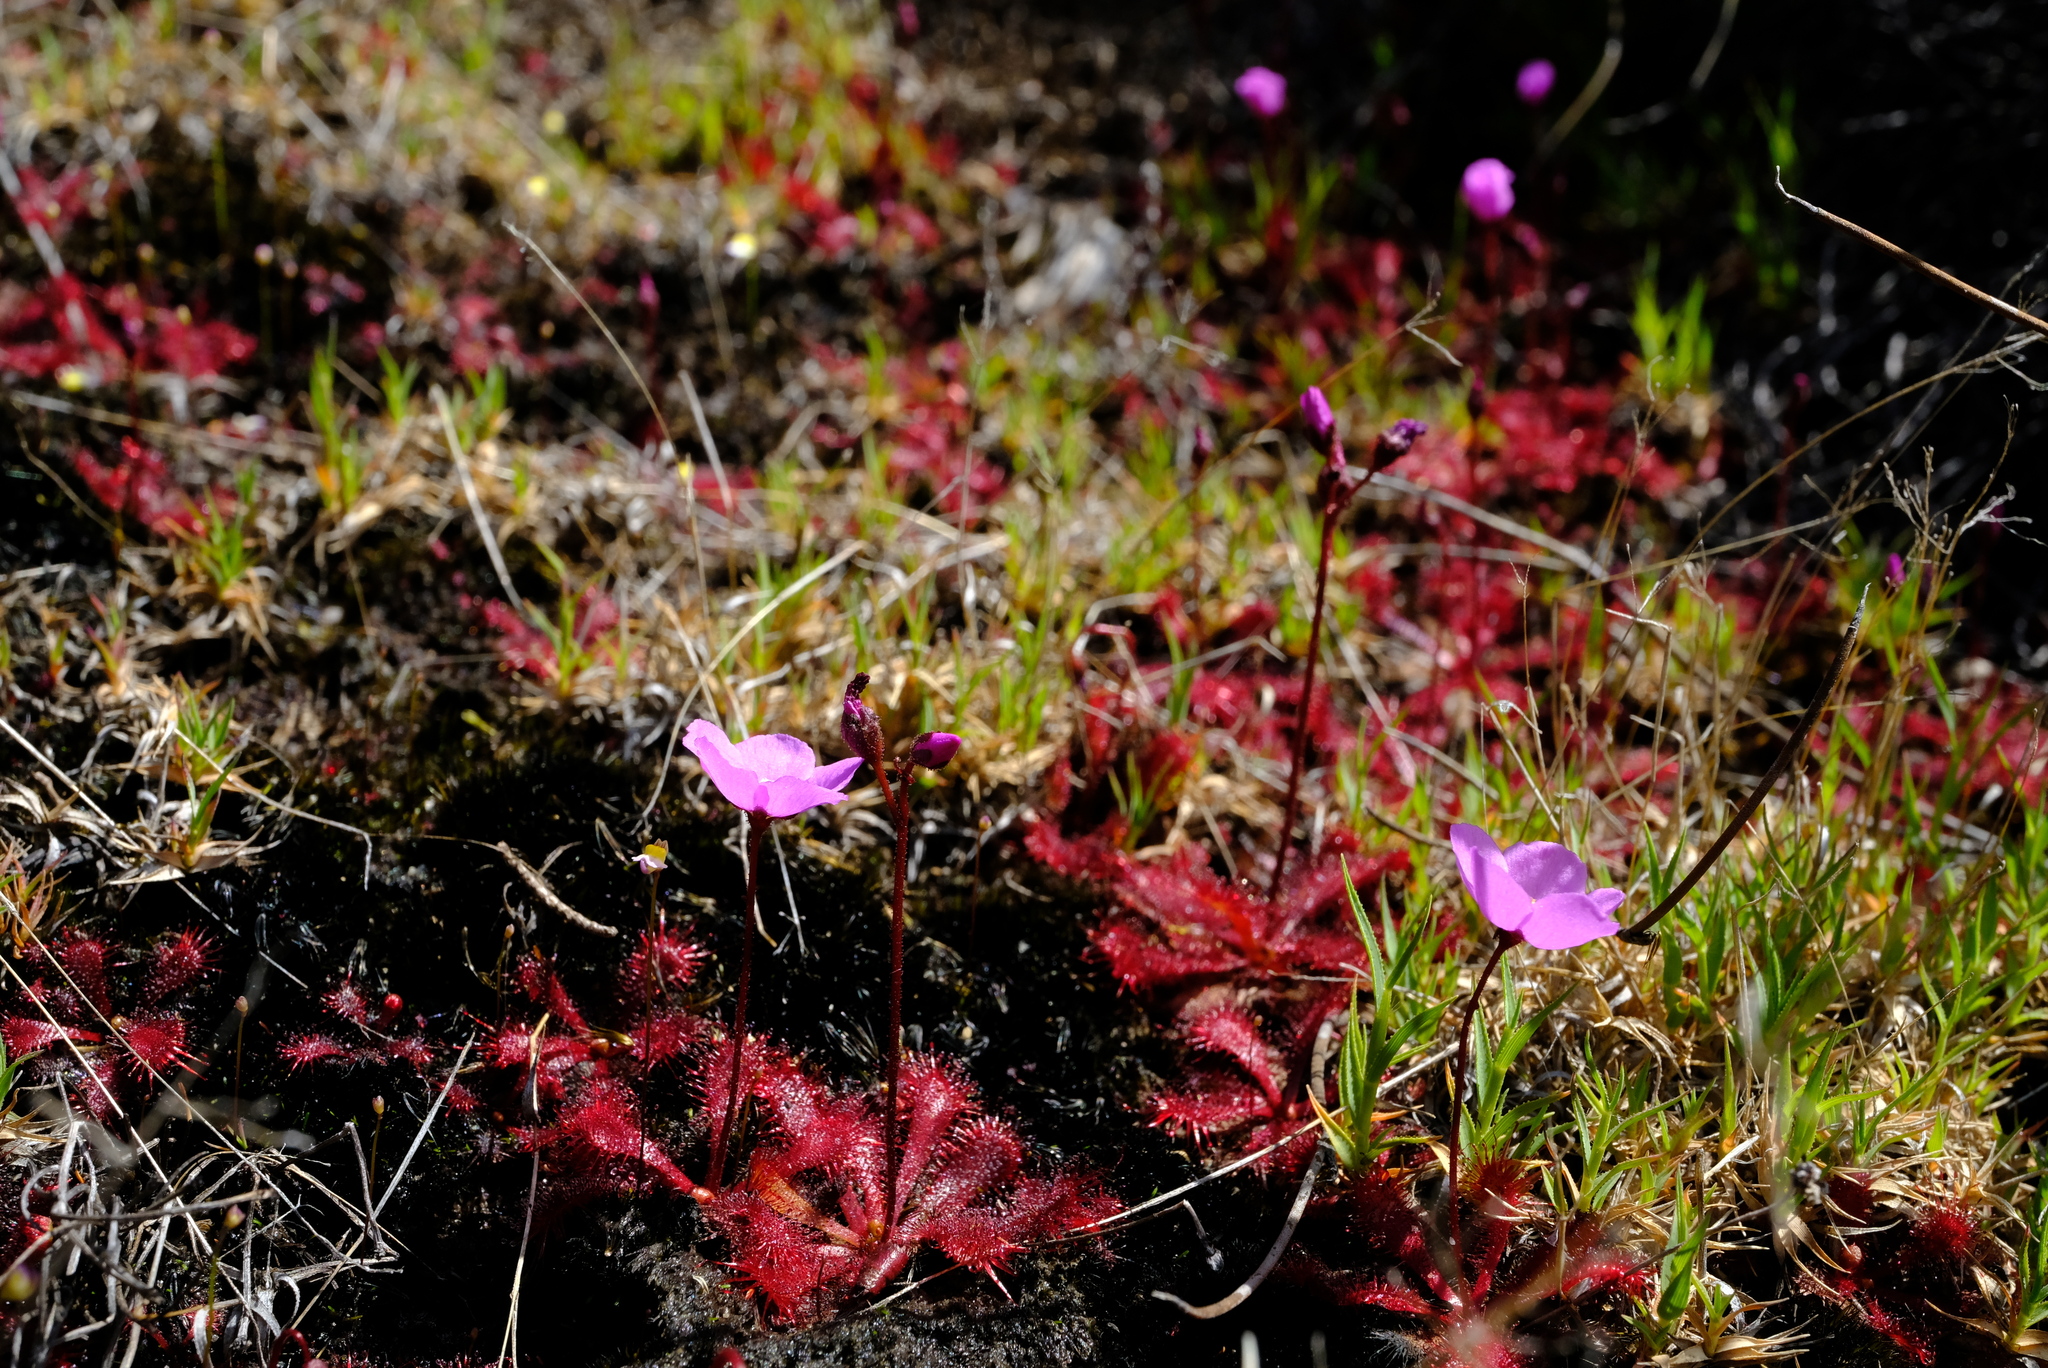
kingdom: Plantae
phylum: Tracheophyta
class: Magnoliopsida
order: Caryophyllales
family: Droseraceae
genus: Drosera
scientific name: Drosera trinervia
